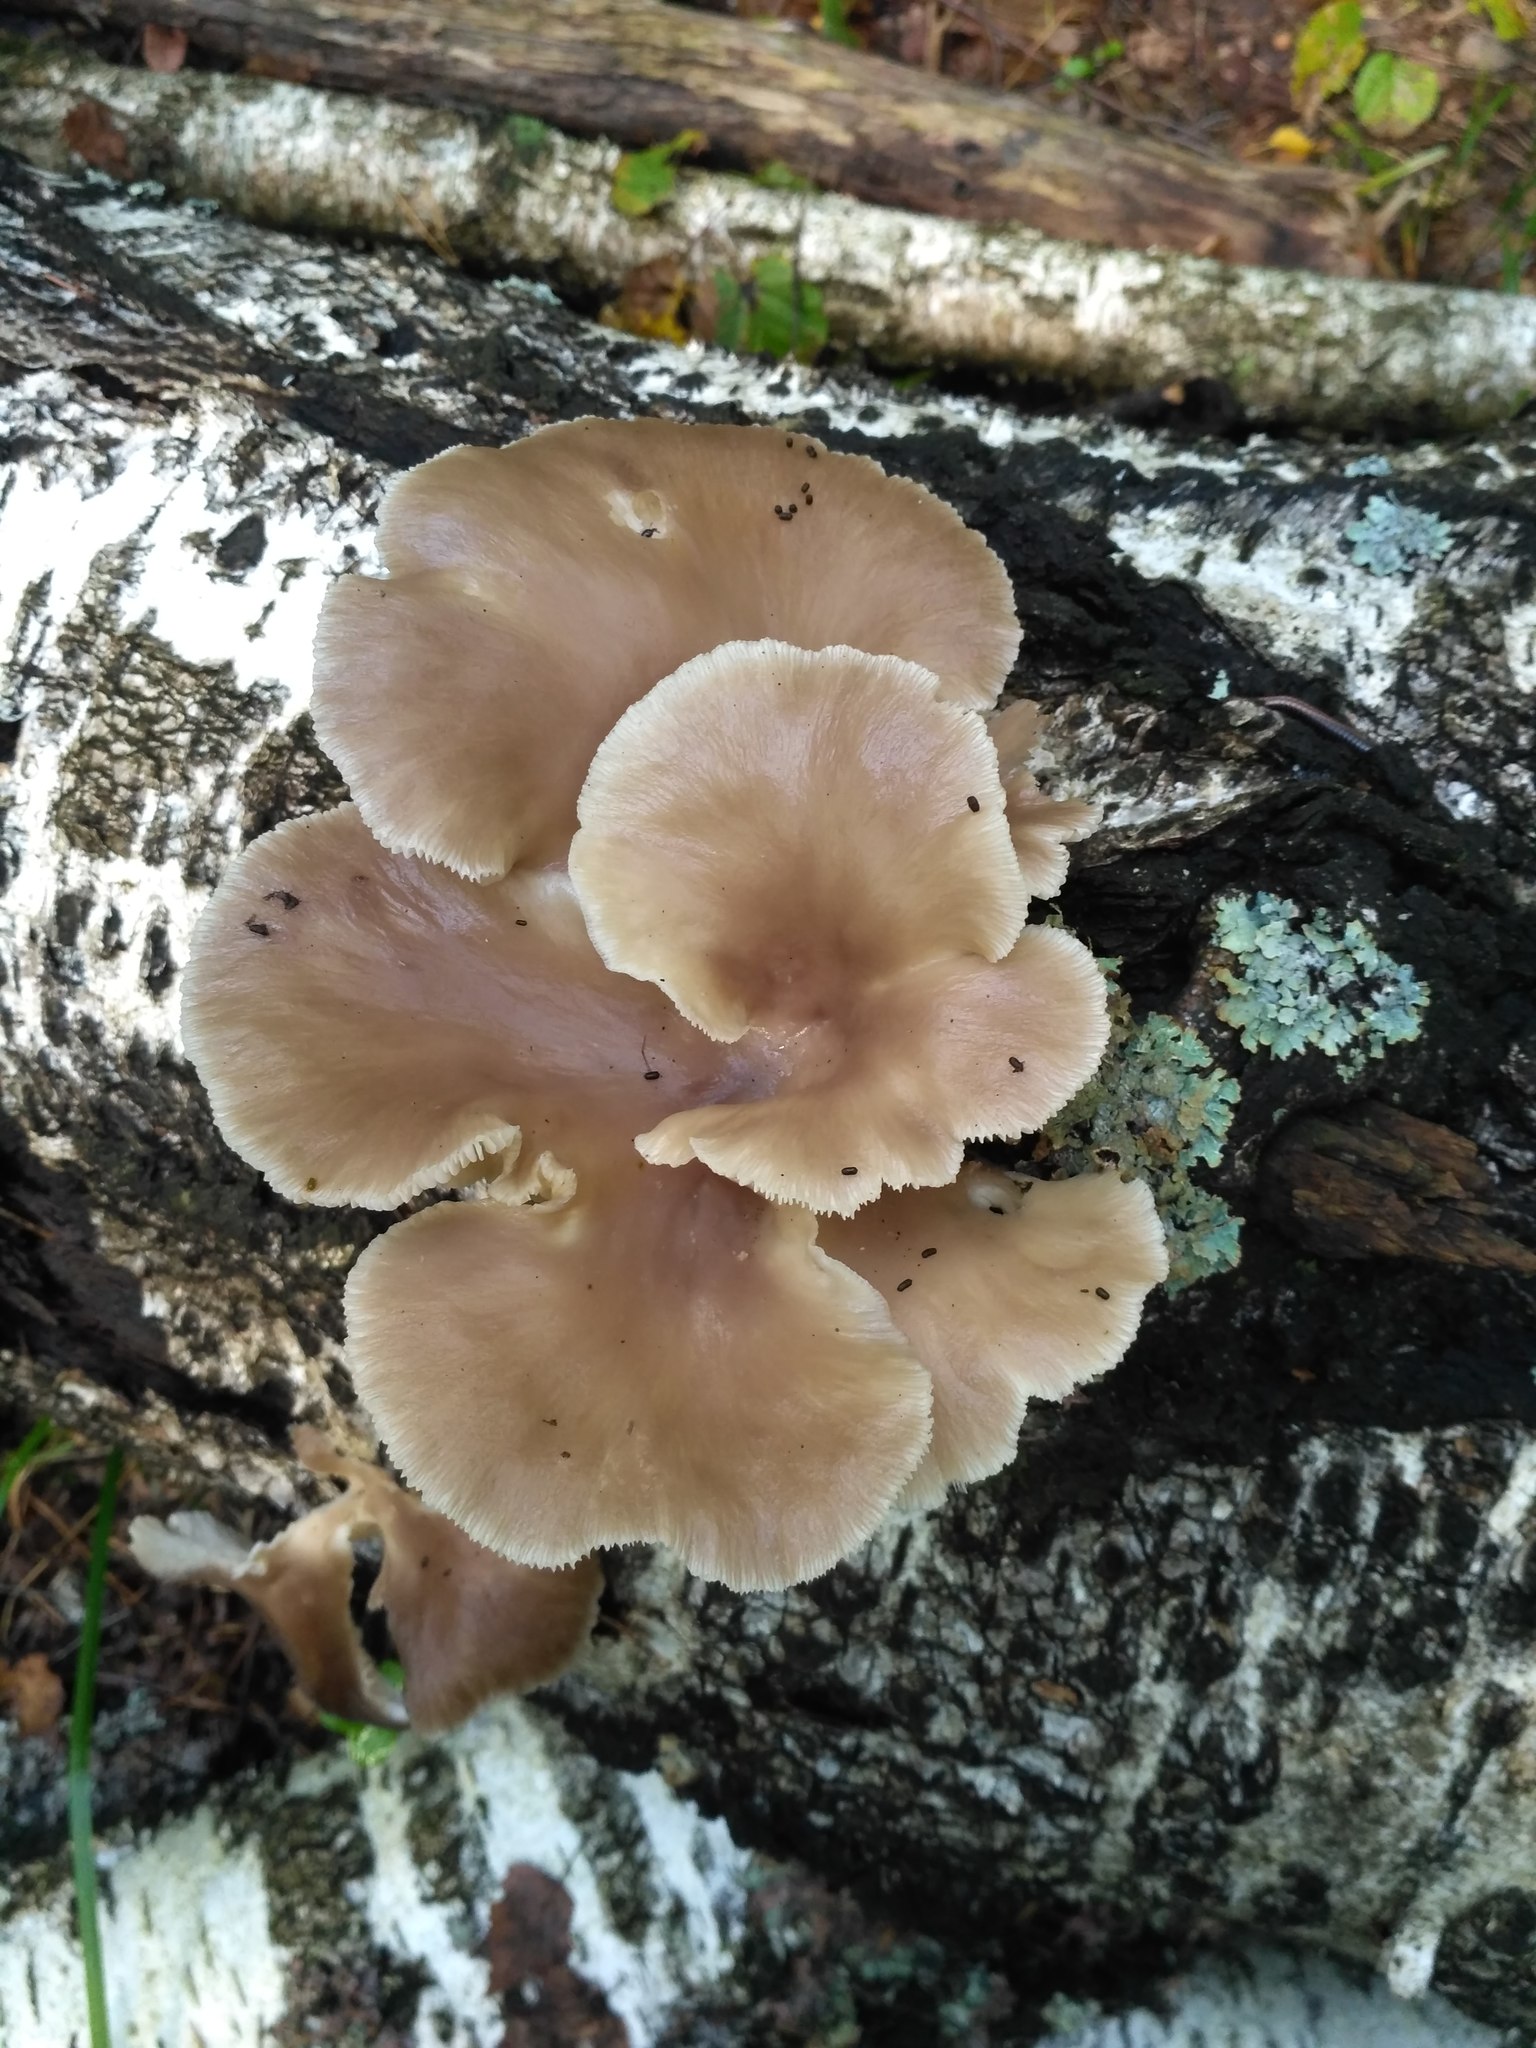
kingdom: Fungi
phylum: Basidiomycota
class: Agaricomycetes
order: Agaricales
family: Pleurotaceae
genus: Pleurotus
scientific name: Pleurotus pulmonarius
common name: Pale oyster
